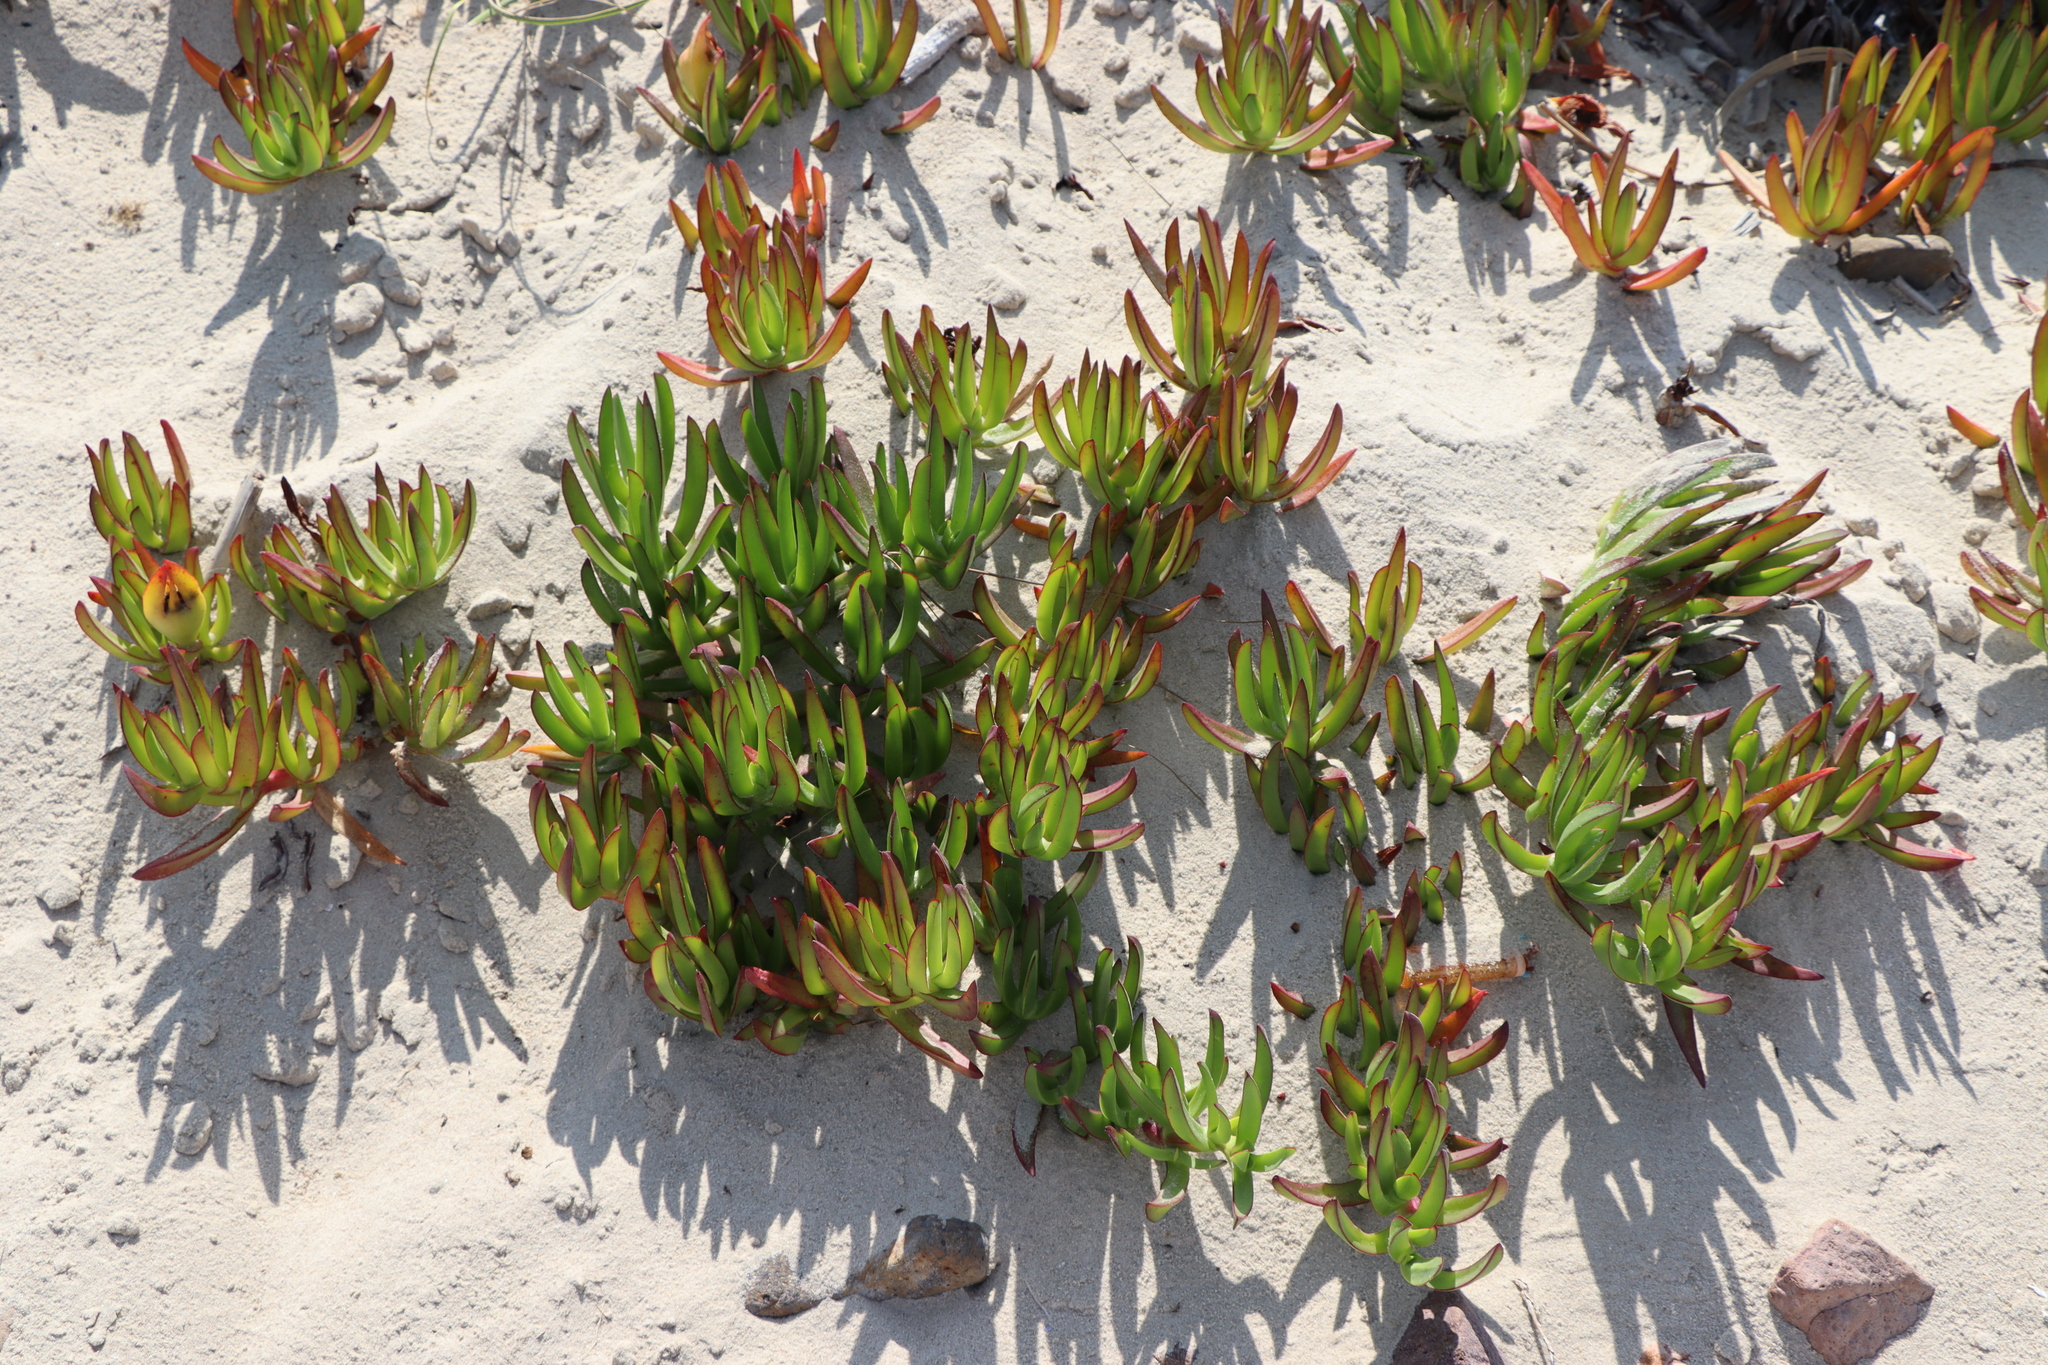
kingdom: Plantae
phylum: Tracheophyta
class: Magnoliopsida
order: Caryophyllales
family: Aizoaceae
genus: Carpobrotus
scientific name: Carpobrotus edulis
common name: Hottentot-fig
